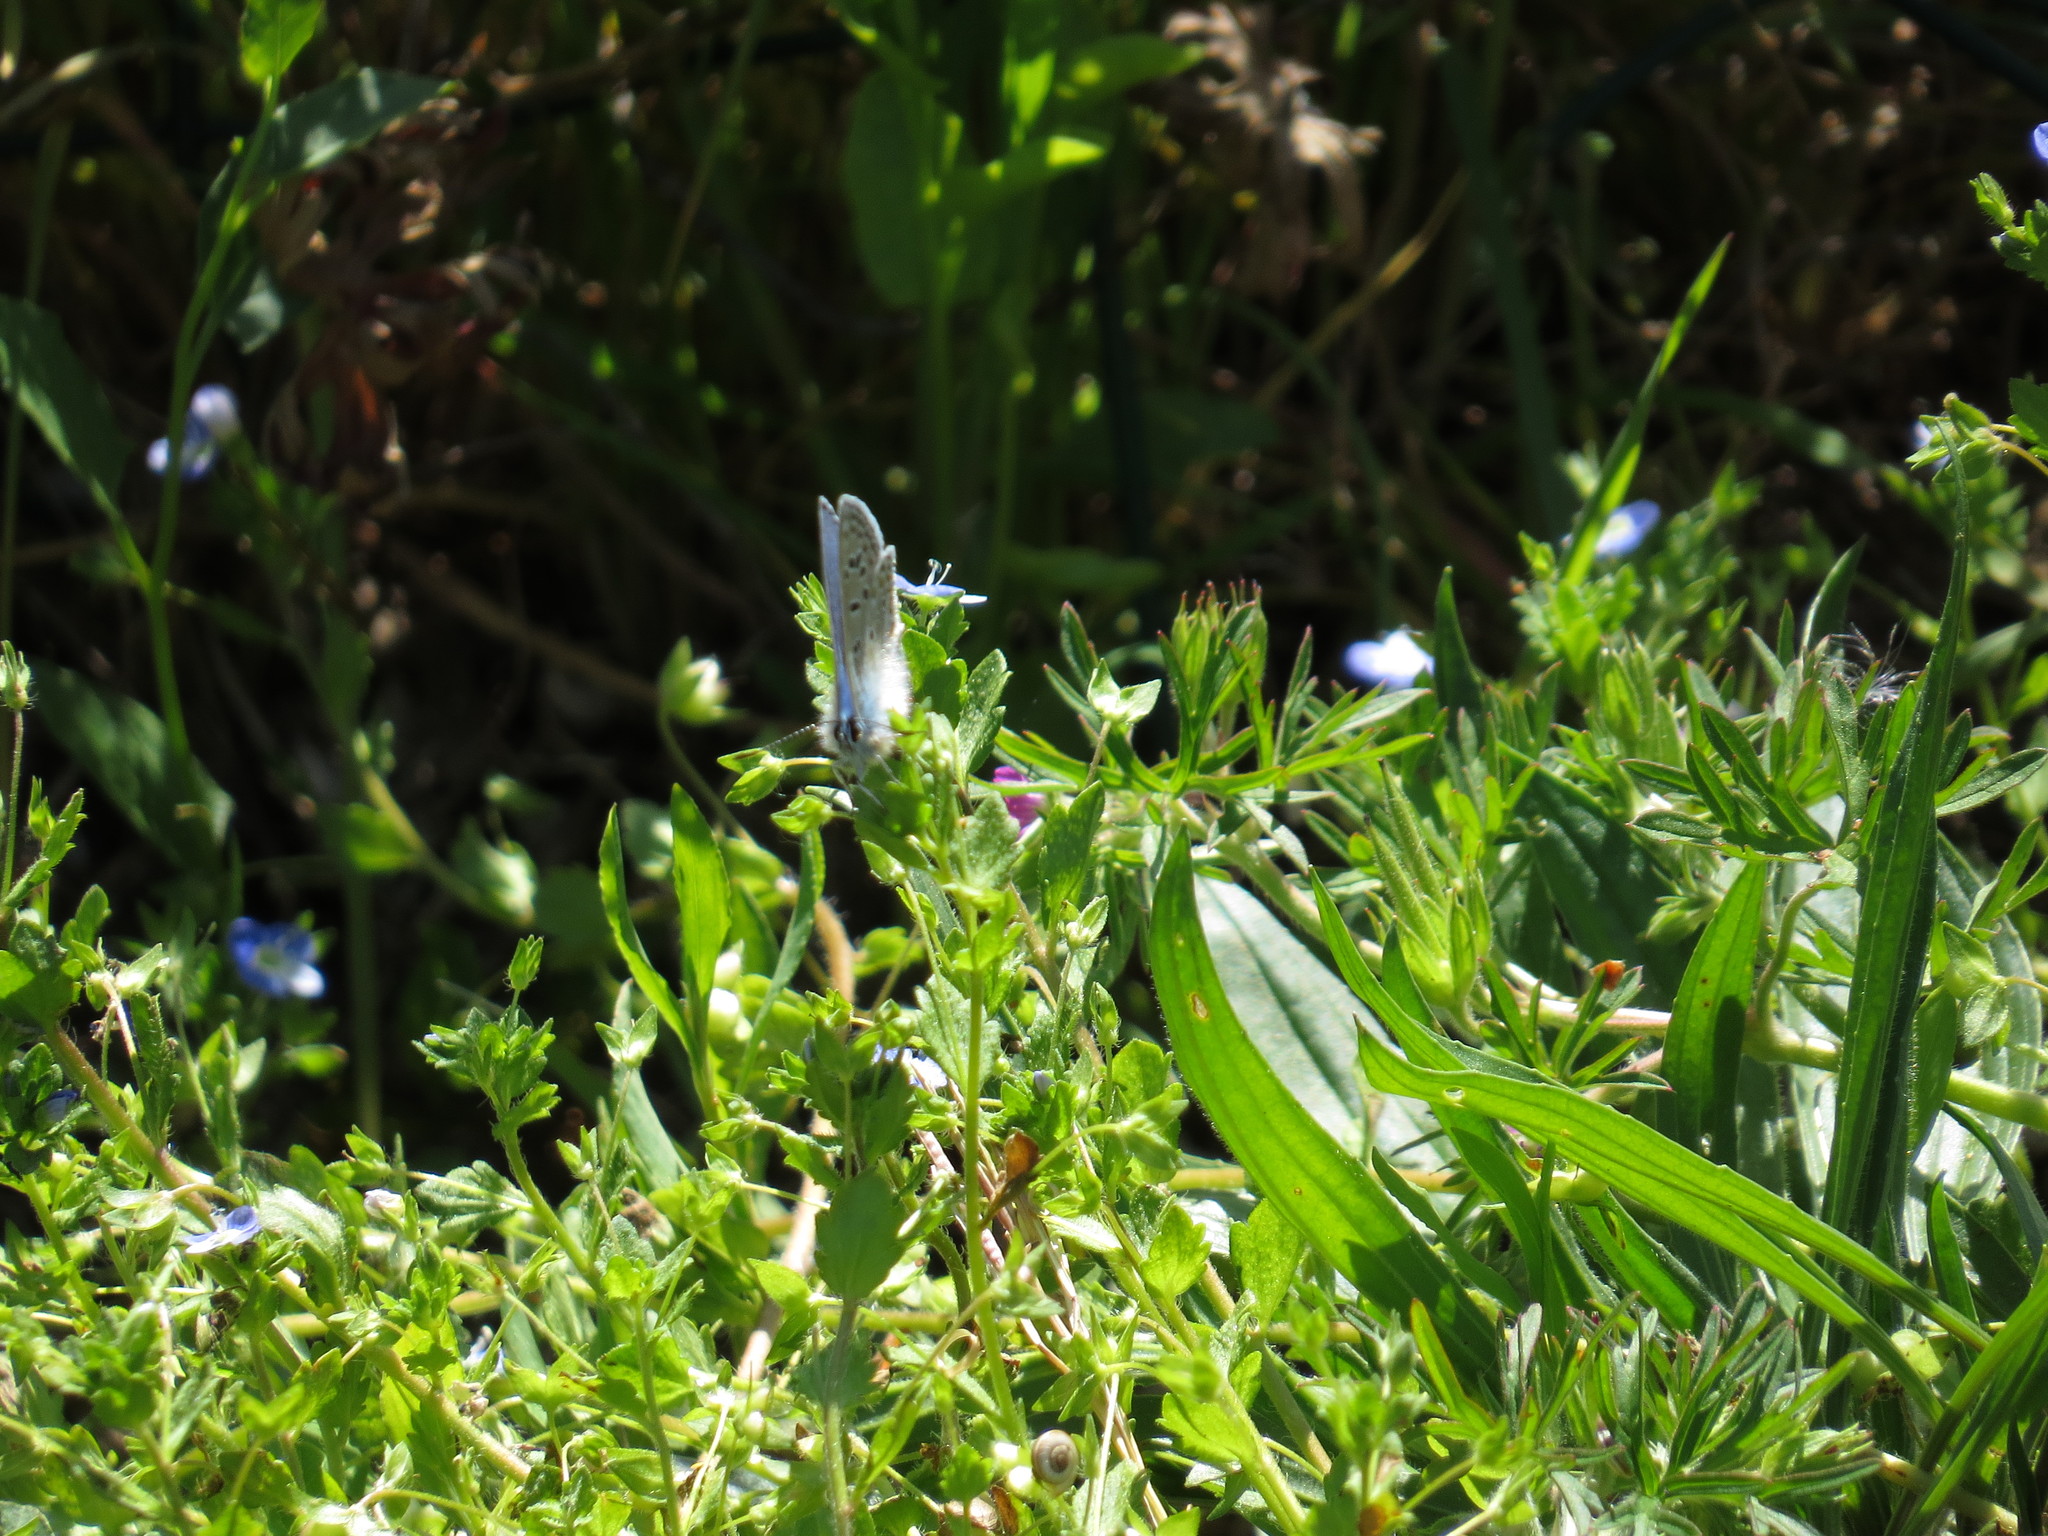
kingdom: Animalia
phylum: Arthropoda
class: Insecta
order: Lepidoptera
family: Lycaenidae
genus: Polyommatus
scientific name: Polyommatus icarus
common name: Common blue
